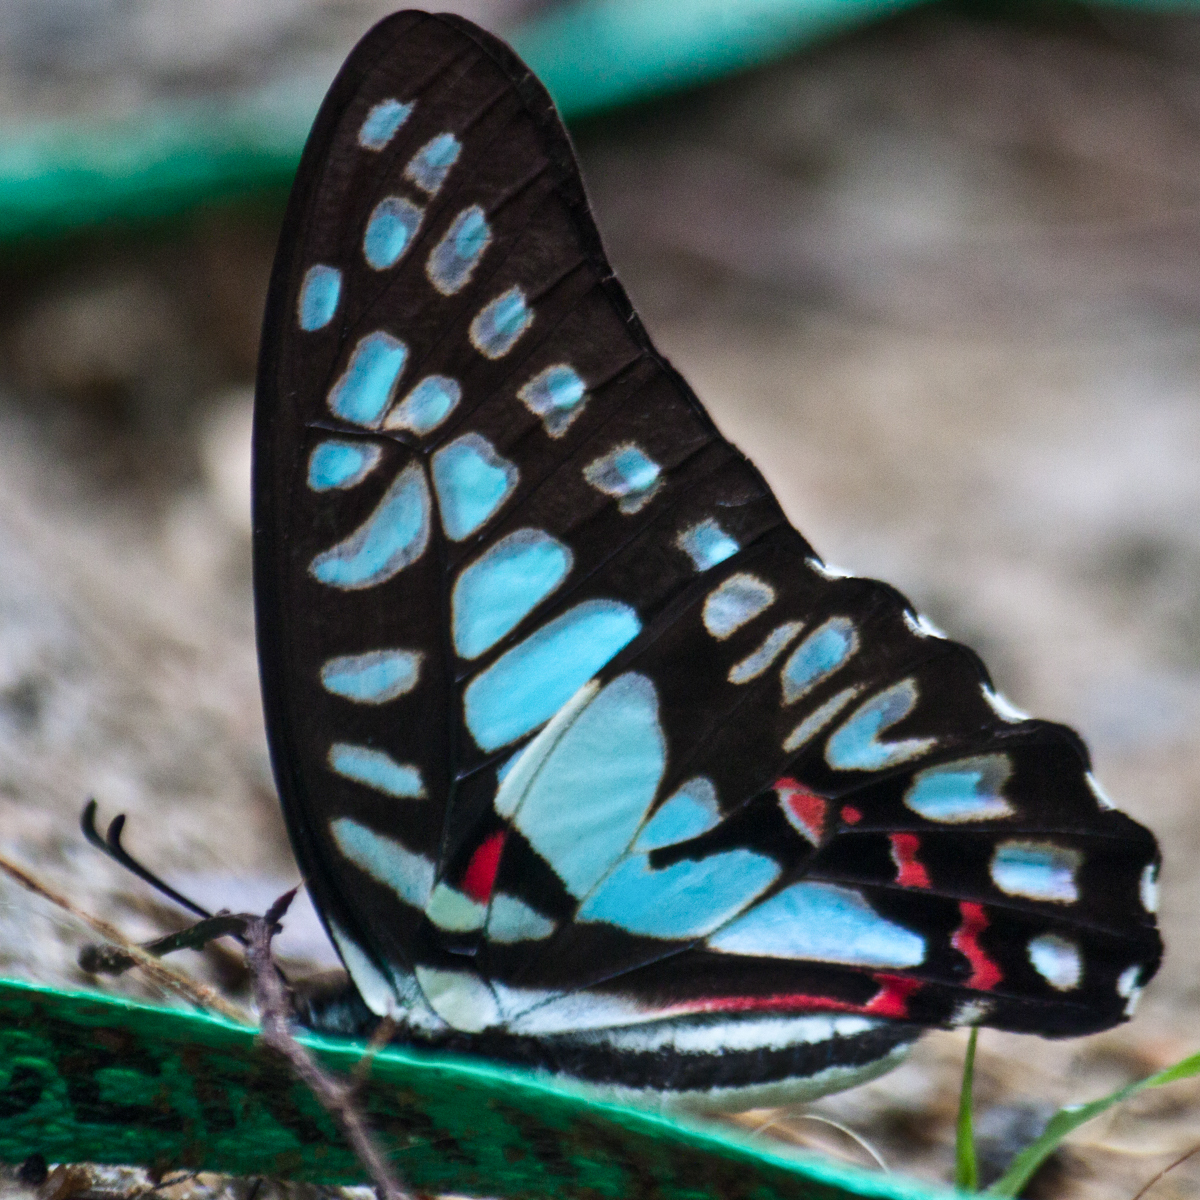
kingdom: Animalia
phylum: Arthropoda
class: Insecta
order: Lepidoptera
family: Papilionidae
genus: Graphium
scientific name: Graphium eurypylus
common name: Great jay
